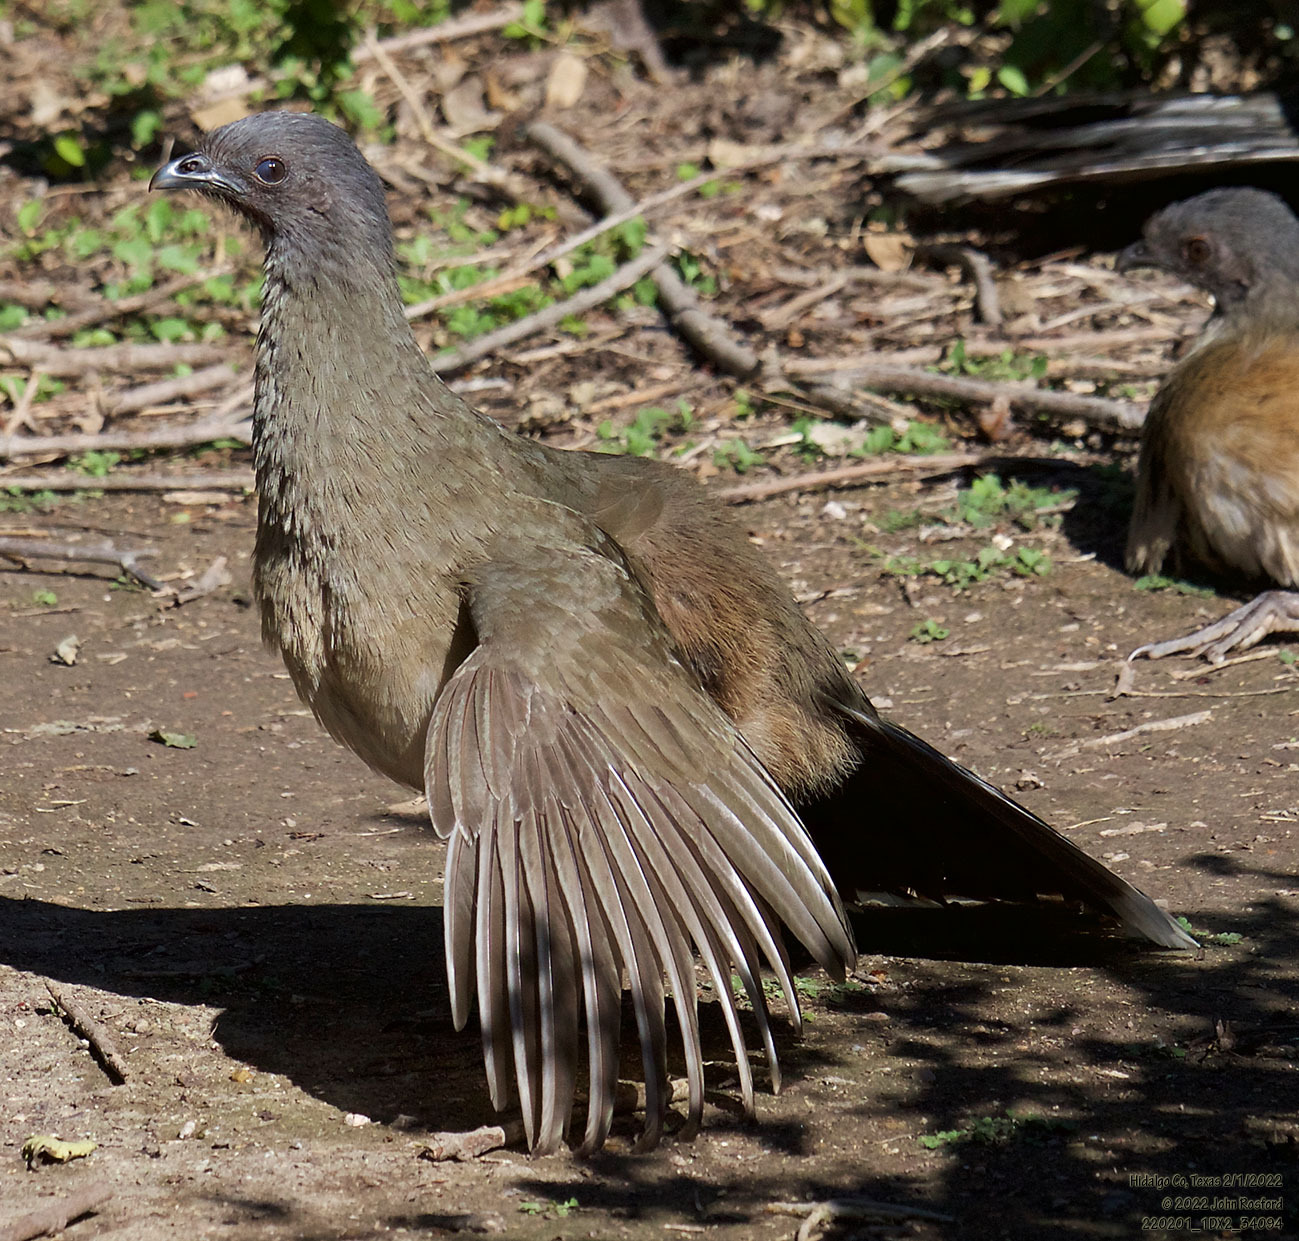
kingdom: Animalia
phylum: Chordata
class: Aves
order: Galliformes
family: Cracidae
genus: Ortalis
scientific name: Ortalis vetula
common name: Plain chachalaca
